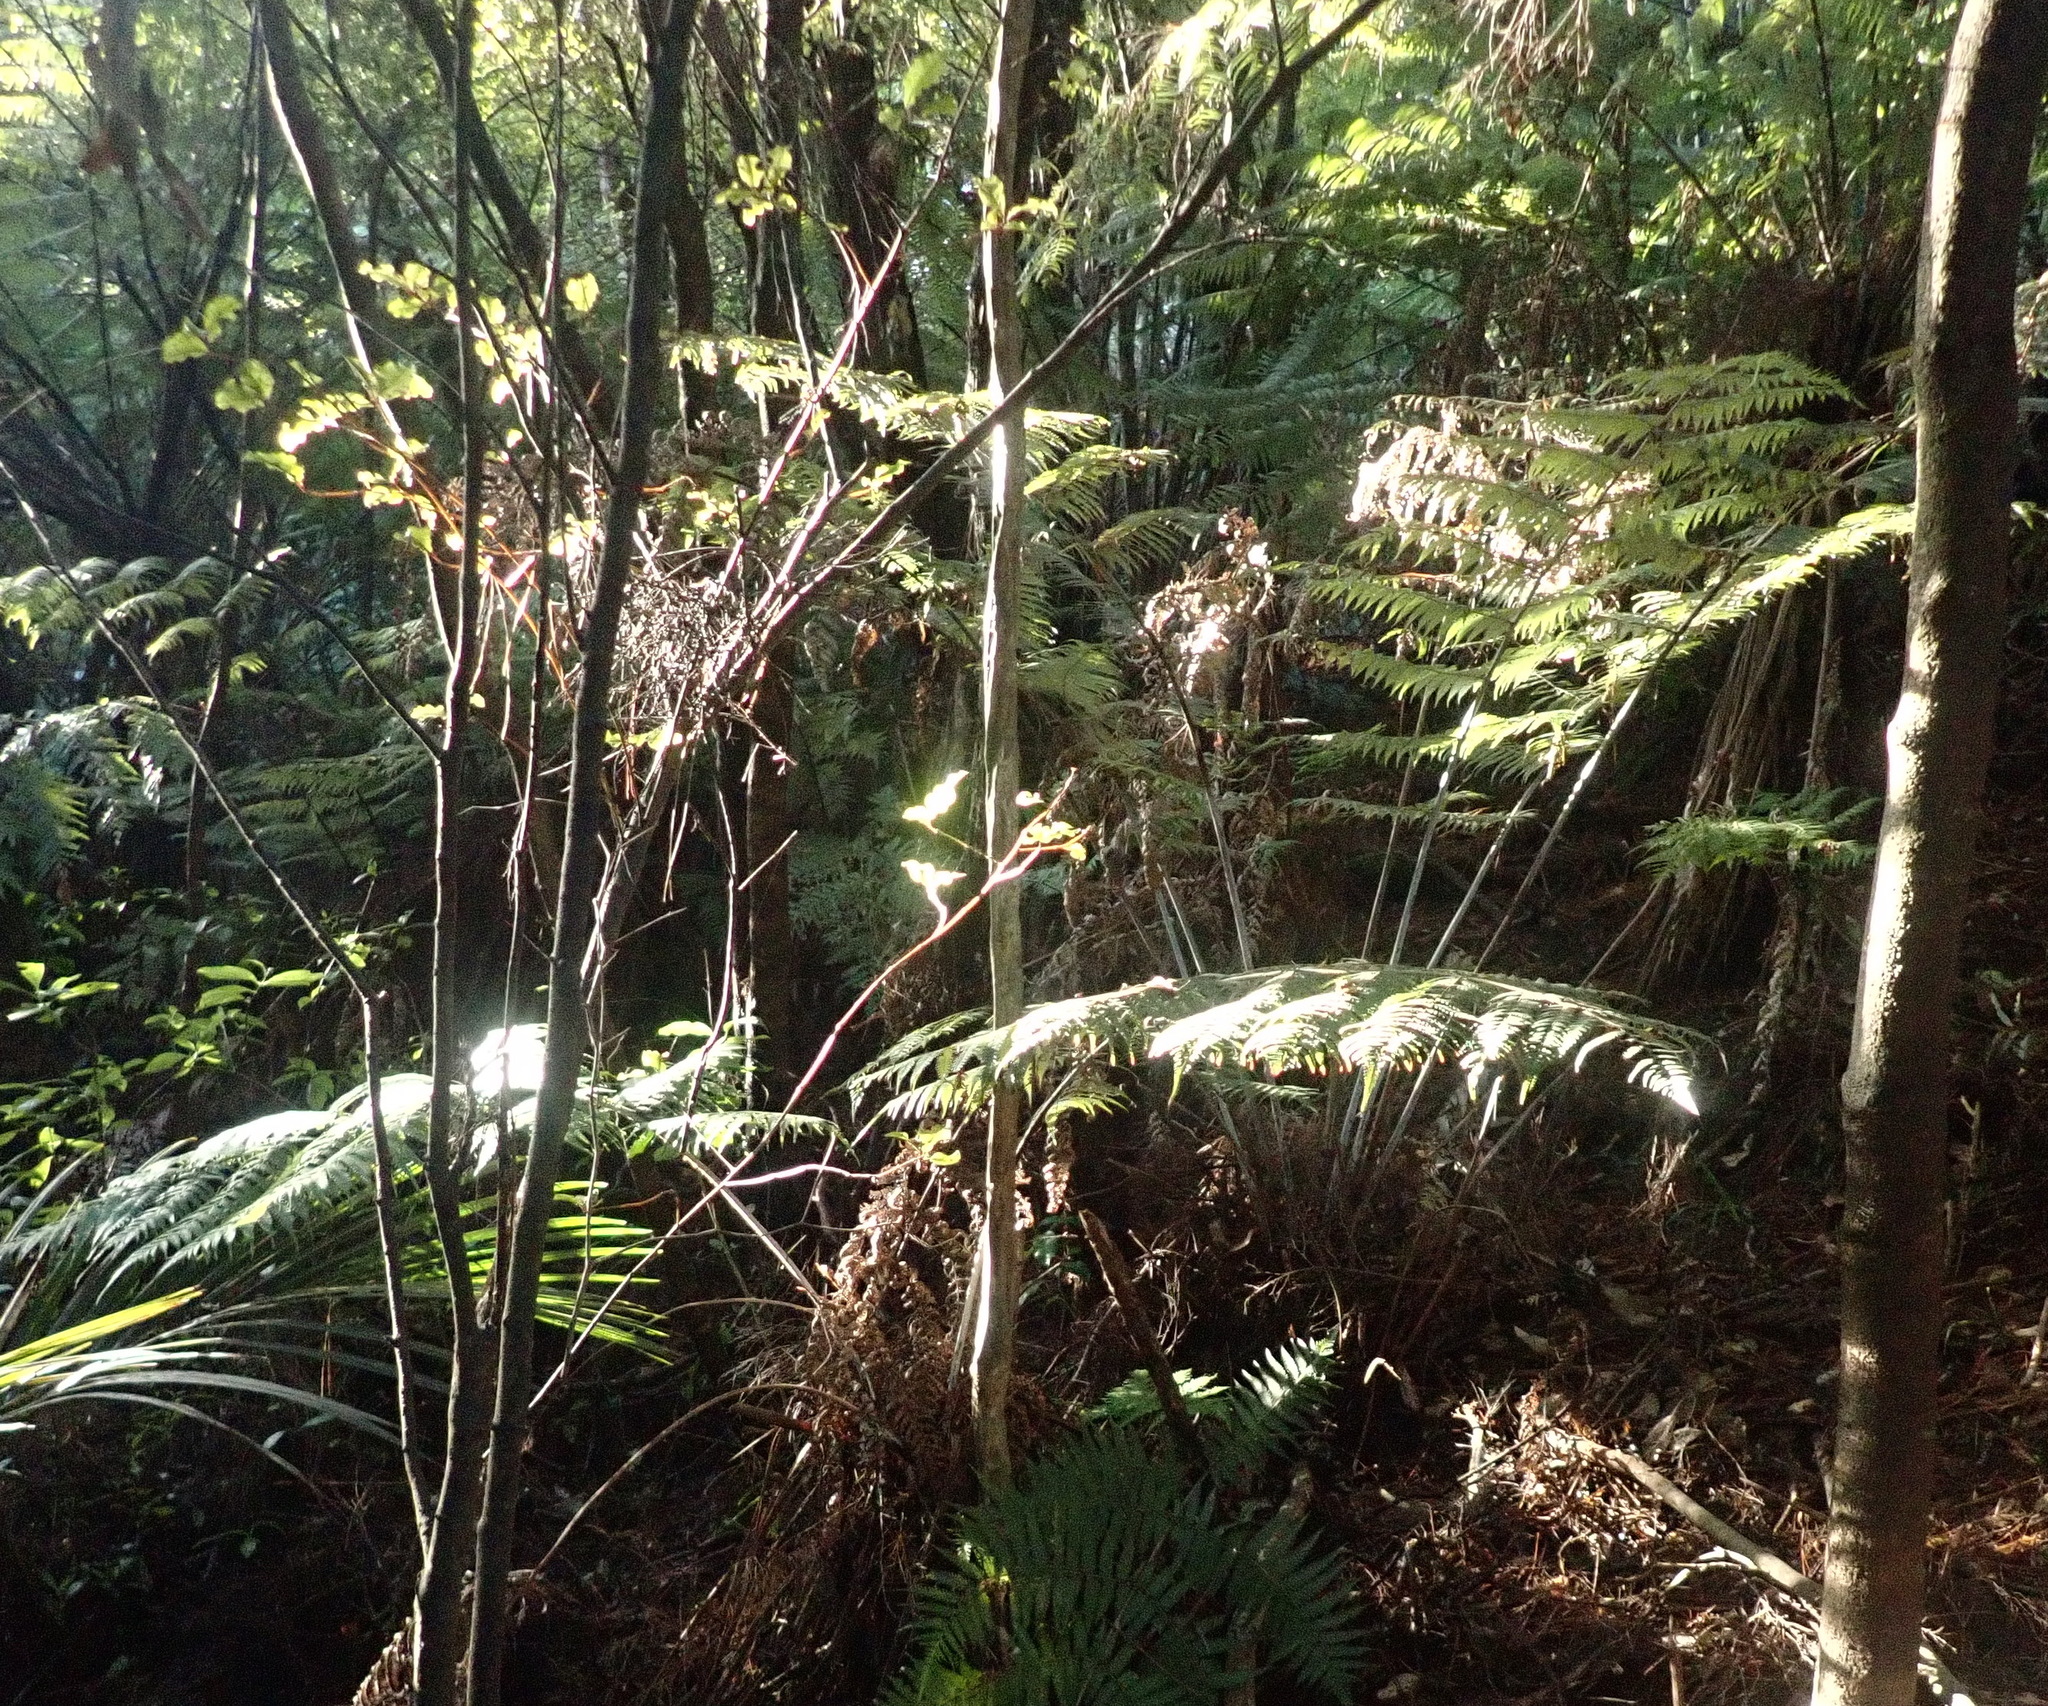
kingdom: Plantae
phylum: Tracheophyta
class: Polypodiopsida
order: Cyatheales
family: Cyatheaceae
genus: Alsophila
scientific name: Alsophila dealbata
